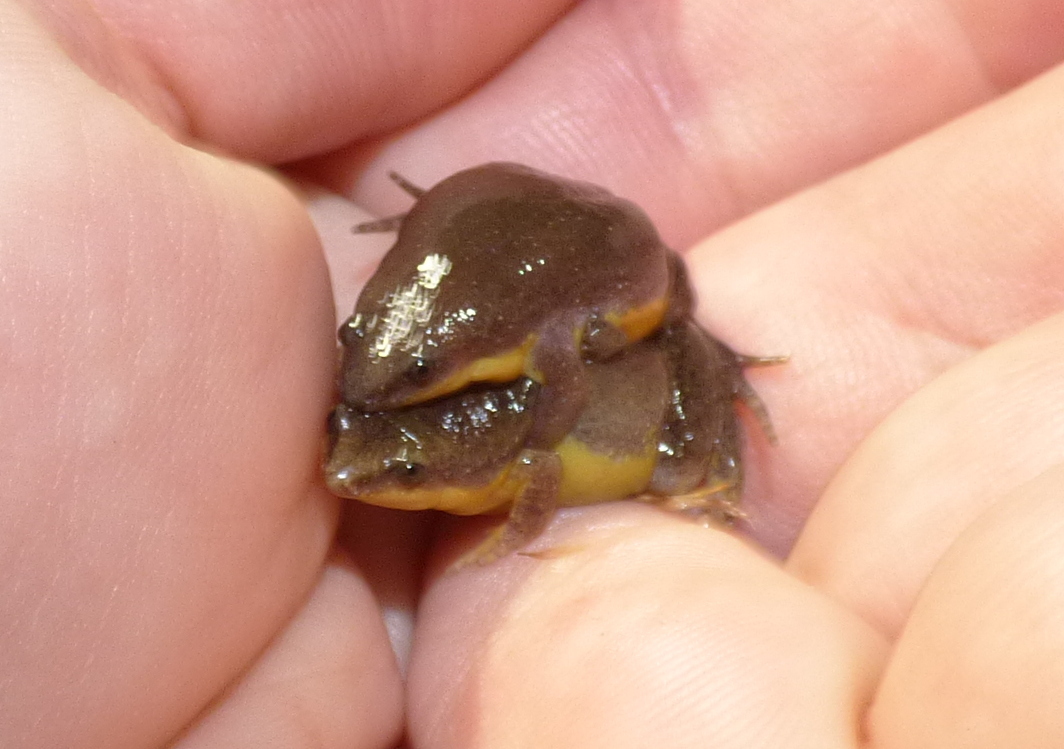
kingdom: Animalia
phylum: Chordata
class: Amphibia
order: Anura
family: Microhylidae
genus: Elachistocleis
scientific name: Elachistocleis bicolor
